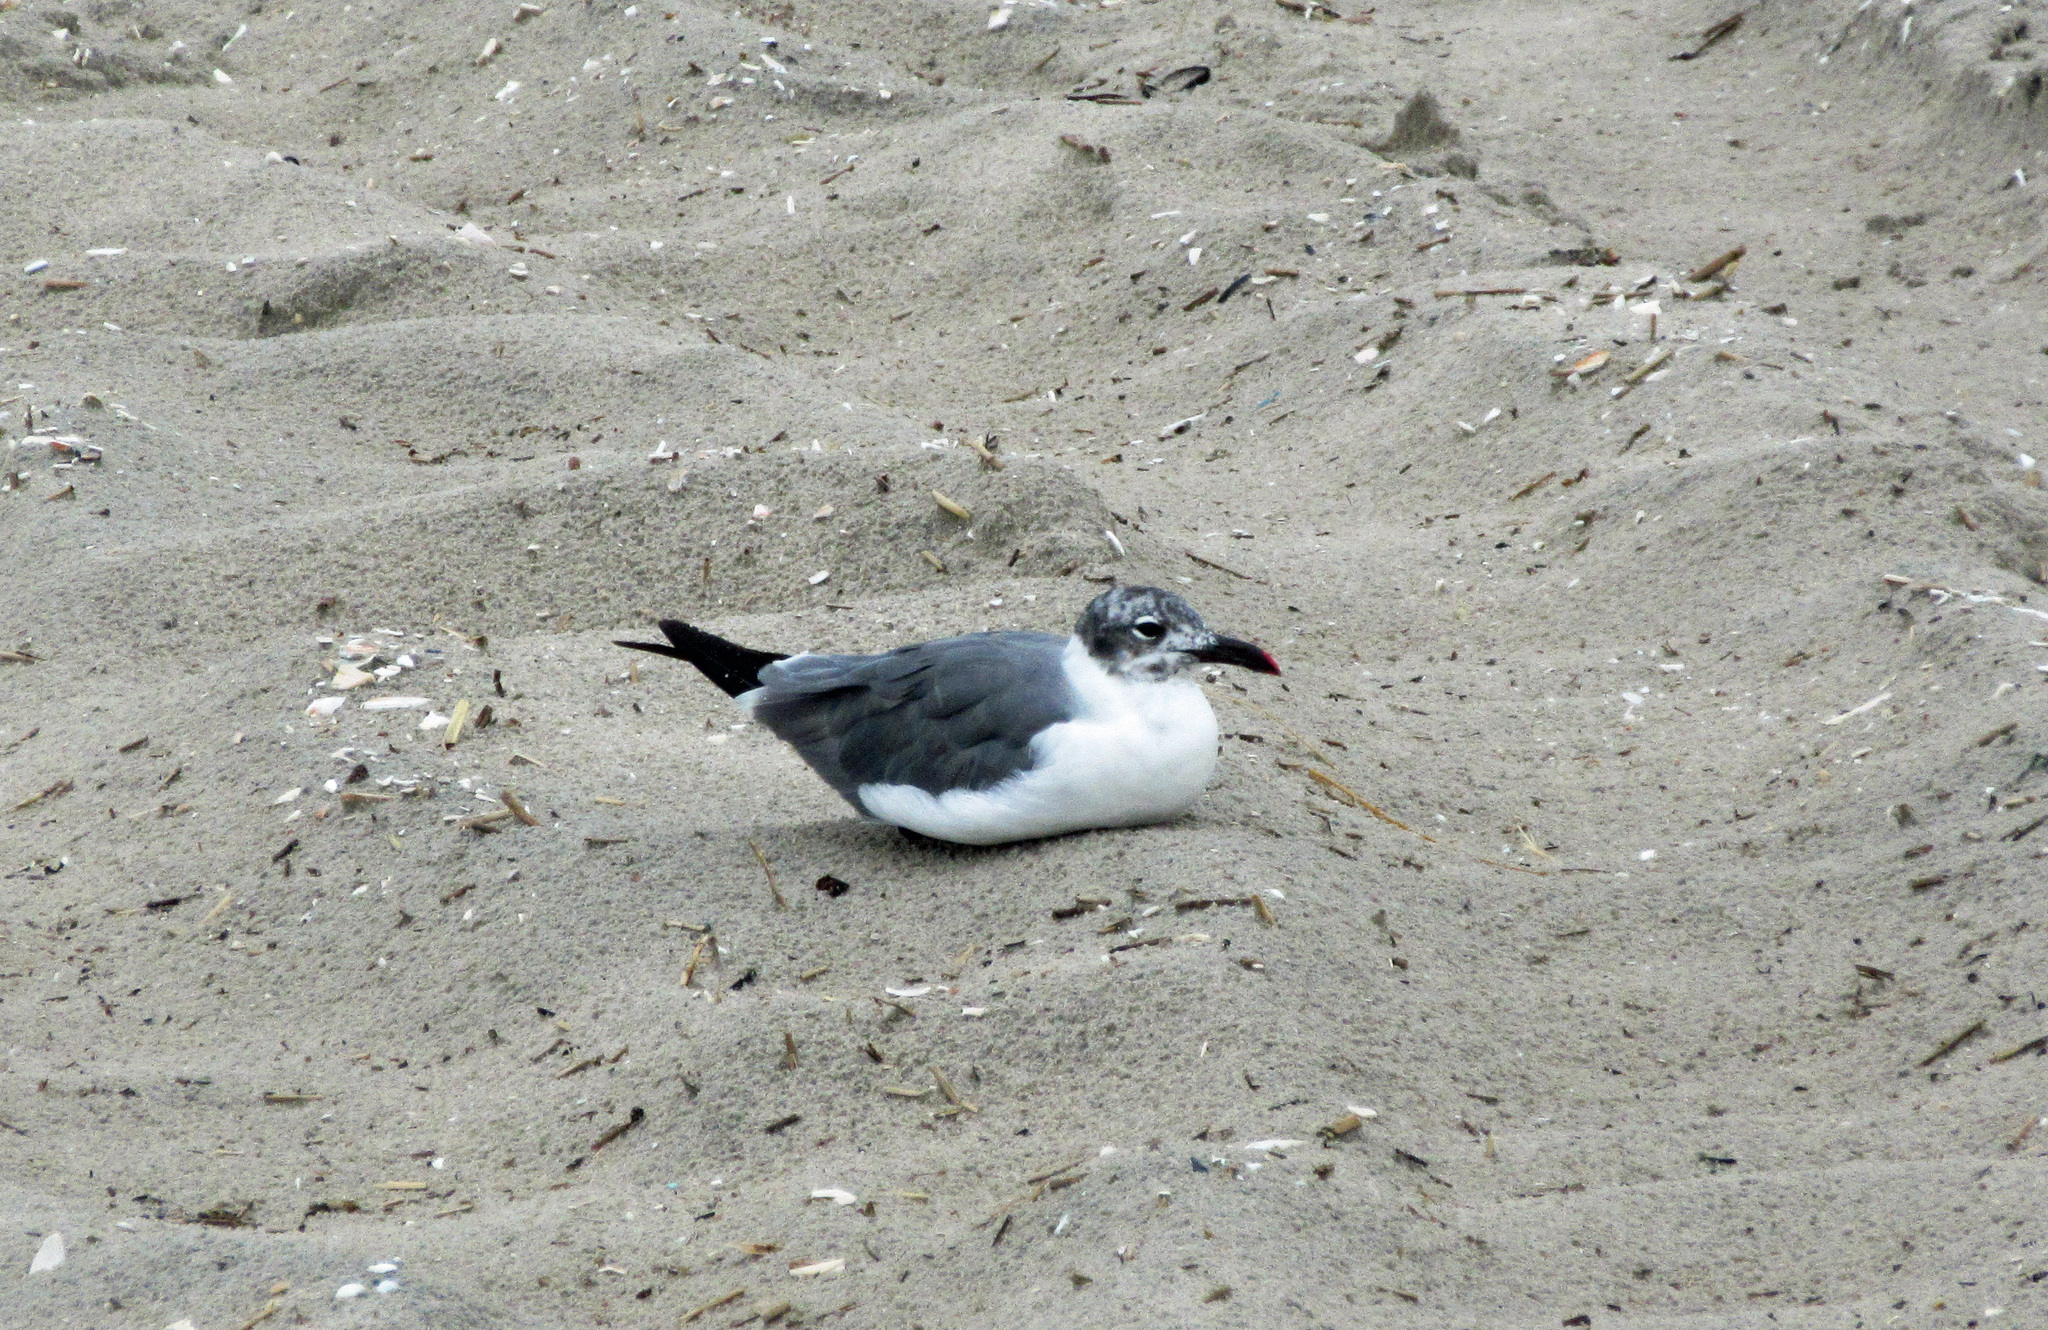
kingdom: Animalia
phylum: Chordata
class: Aves
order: Charadriiformes
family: Laridae
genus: Leucophaeus
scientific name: Leucophaeus atricilla
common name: Laughing gull
